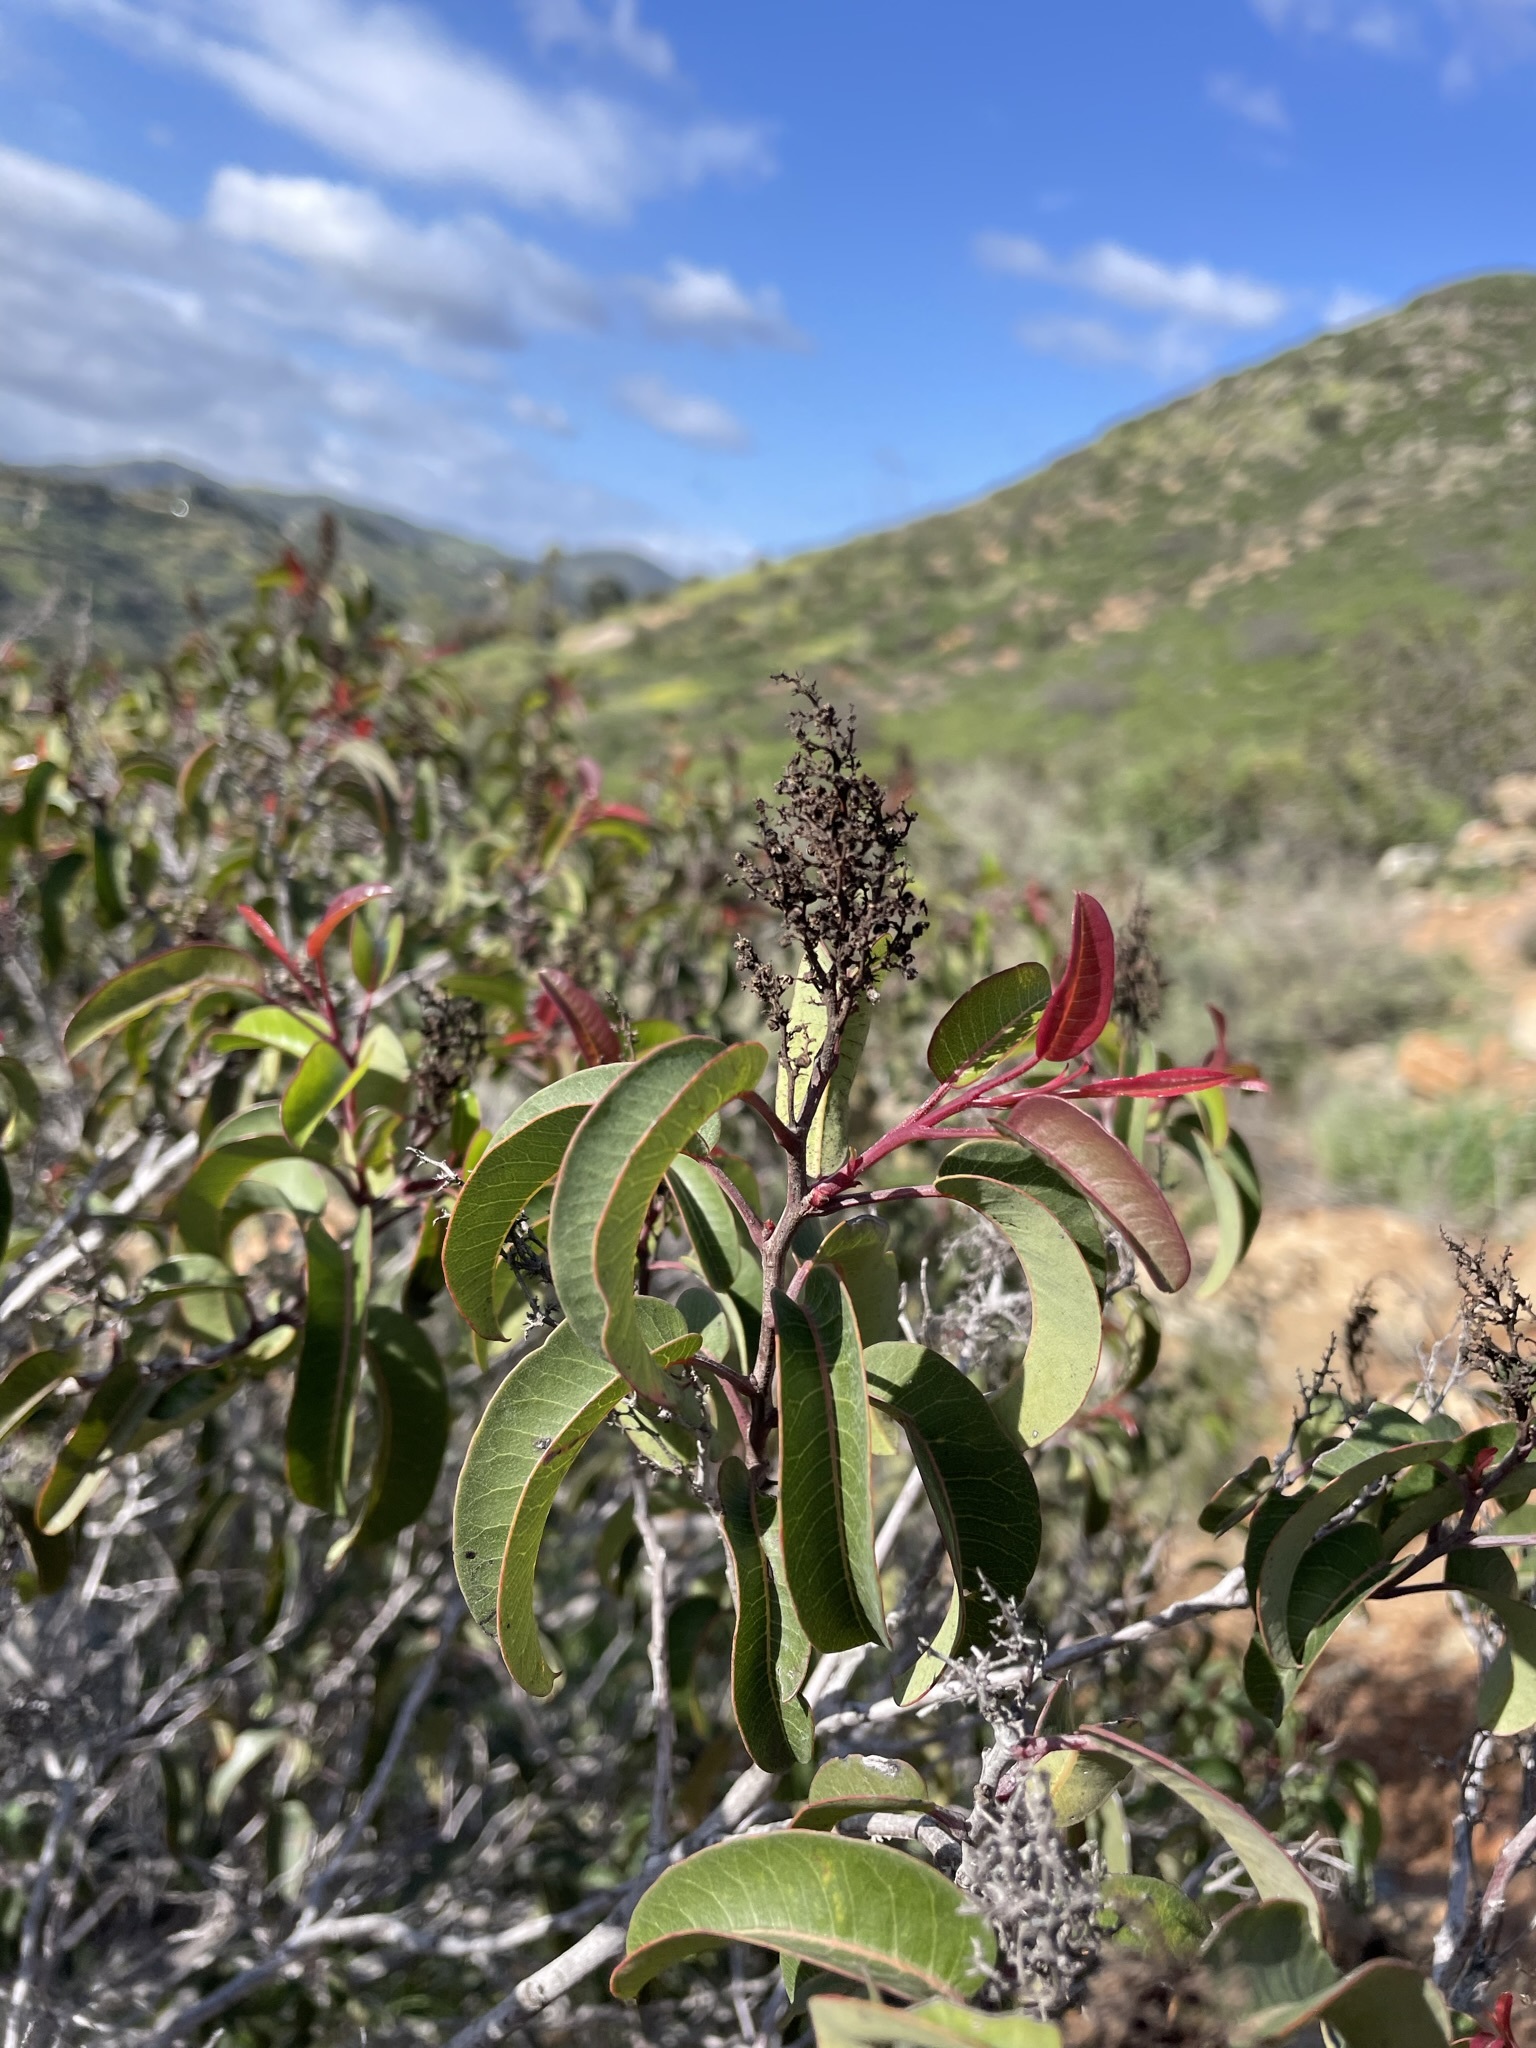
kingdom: Plantae
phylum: Tracheophyta
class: Magnoliopsida
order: Sapindales
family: Anacardiaceae
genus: Malosma
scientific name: Malosma laurina
